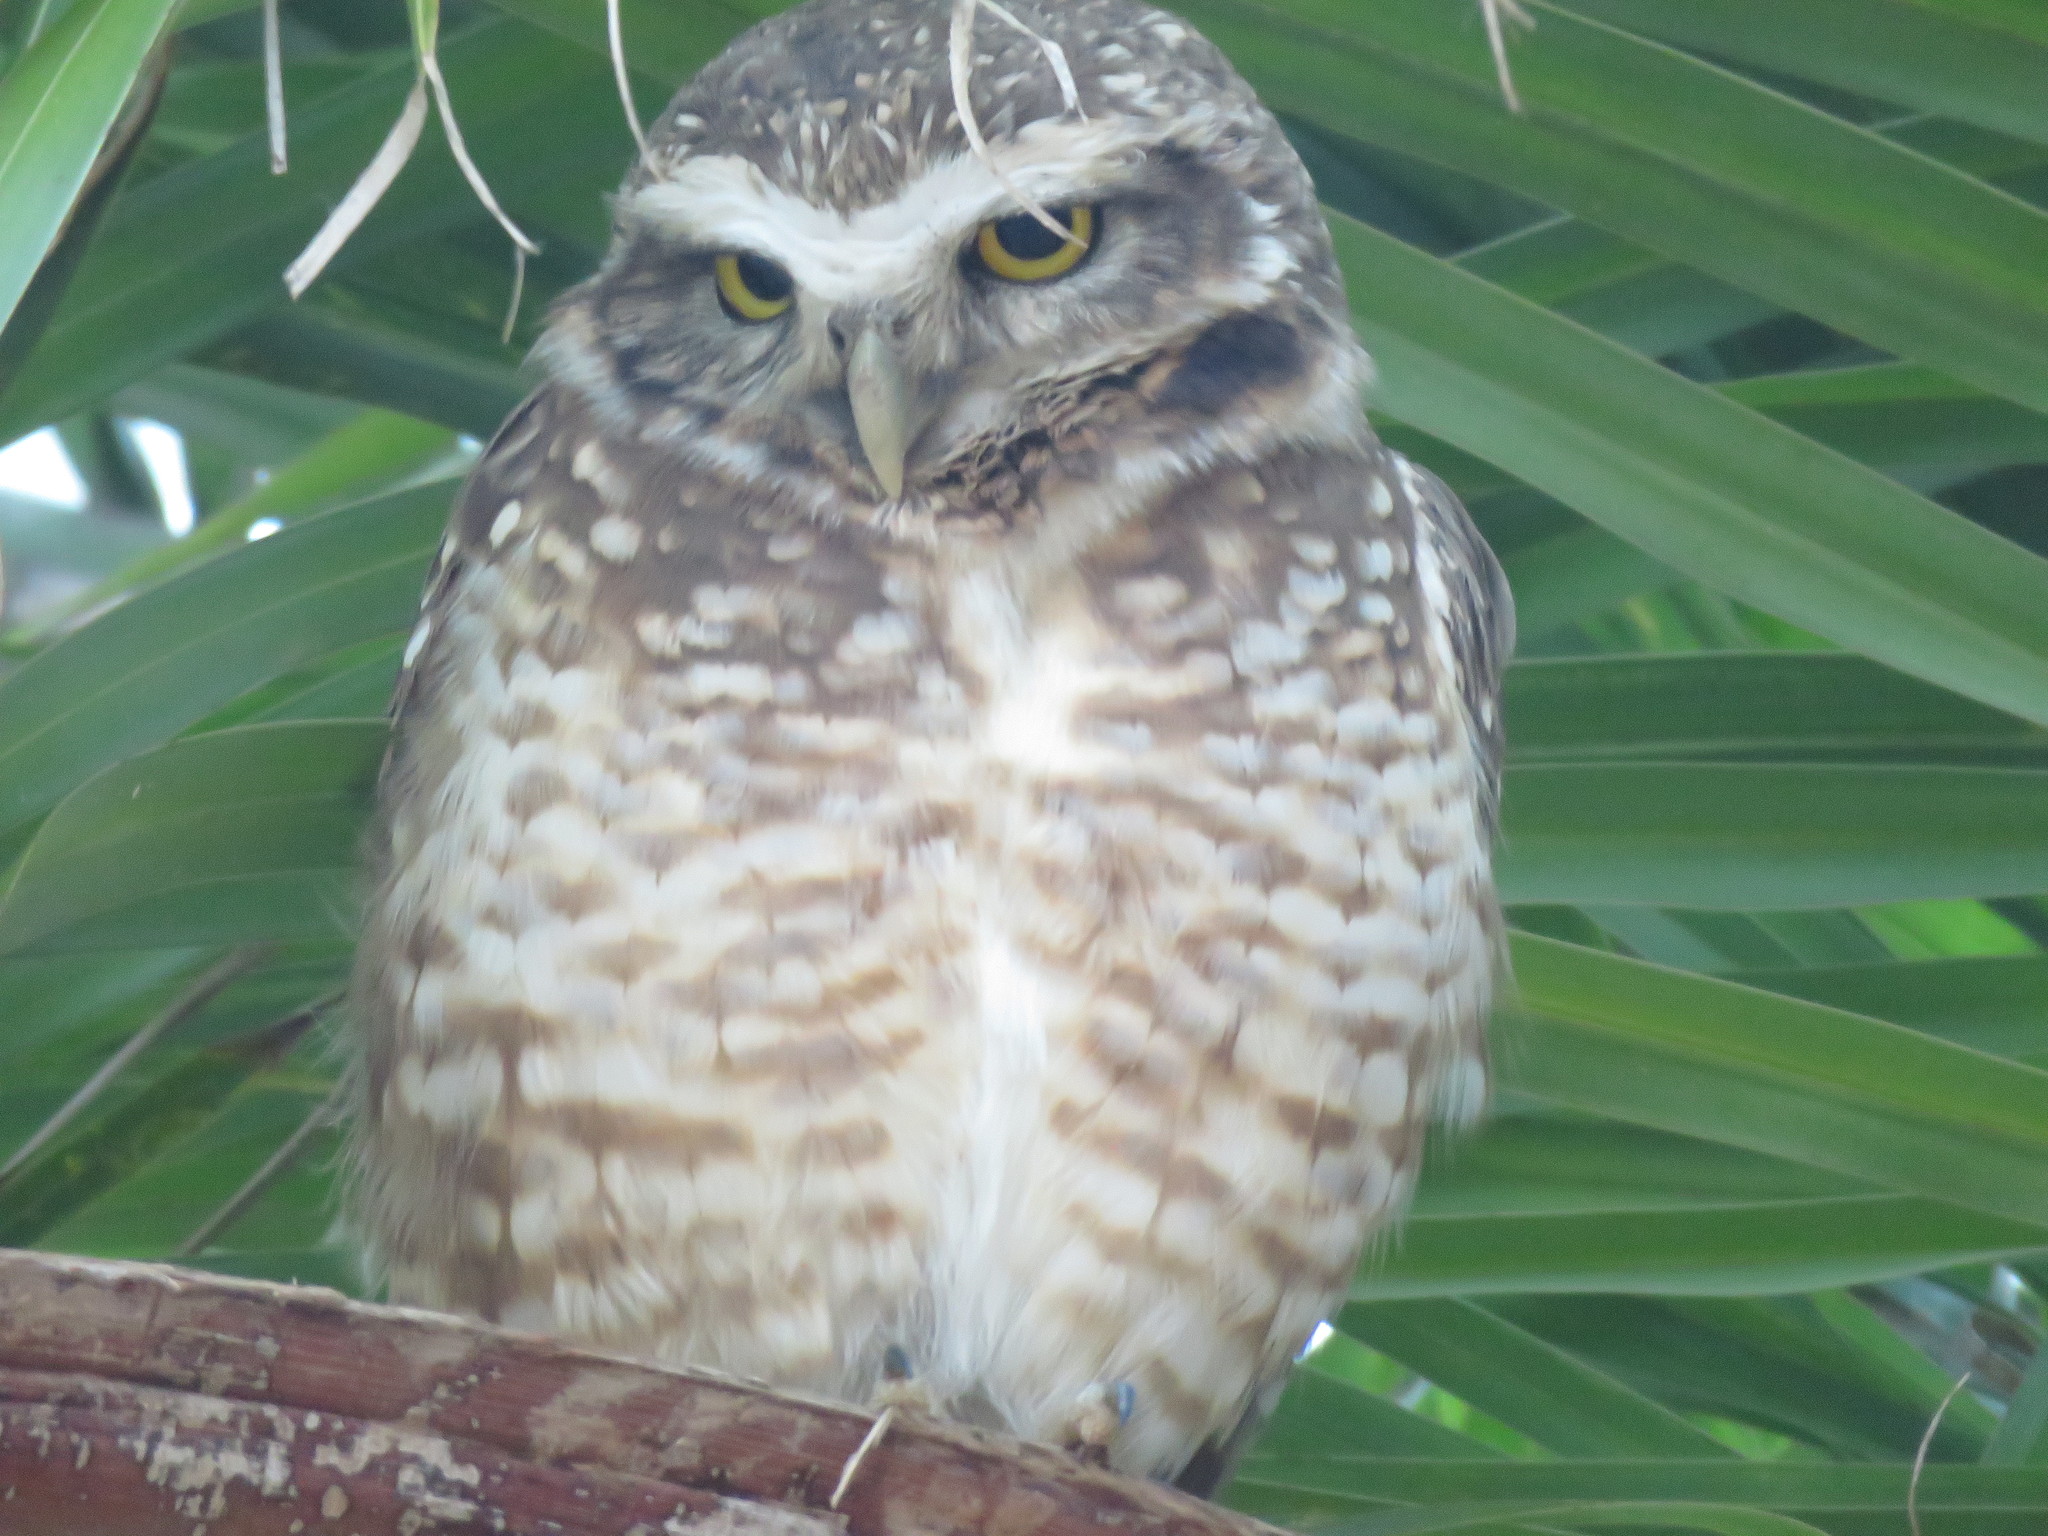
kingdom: Animalia
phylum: Chordata
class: Aves
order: Strigiformes
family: Strigidae
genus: Athene
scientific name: Athene cunicularia
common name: Burrowing owl
